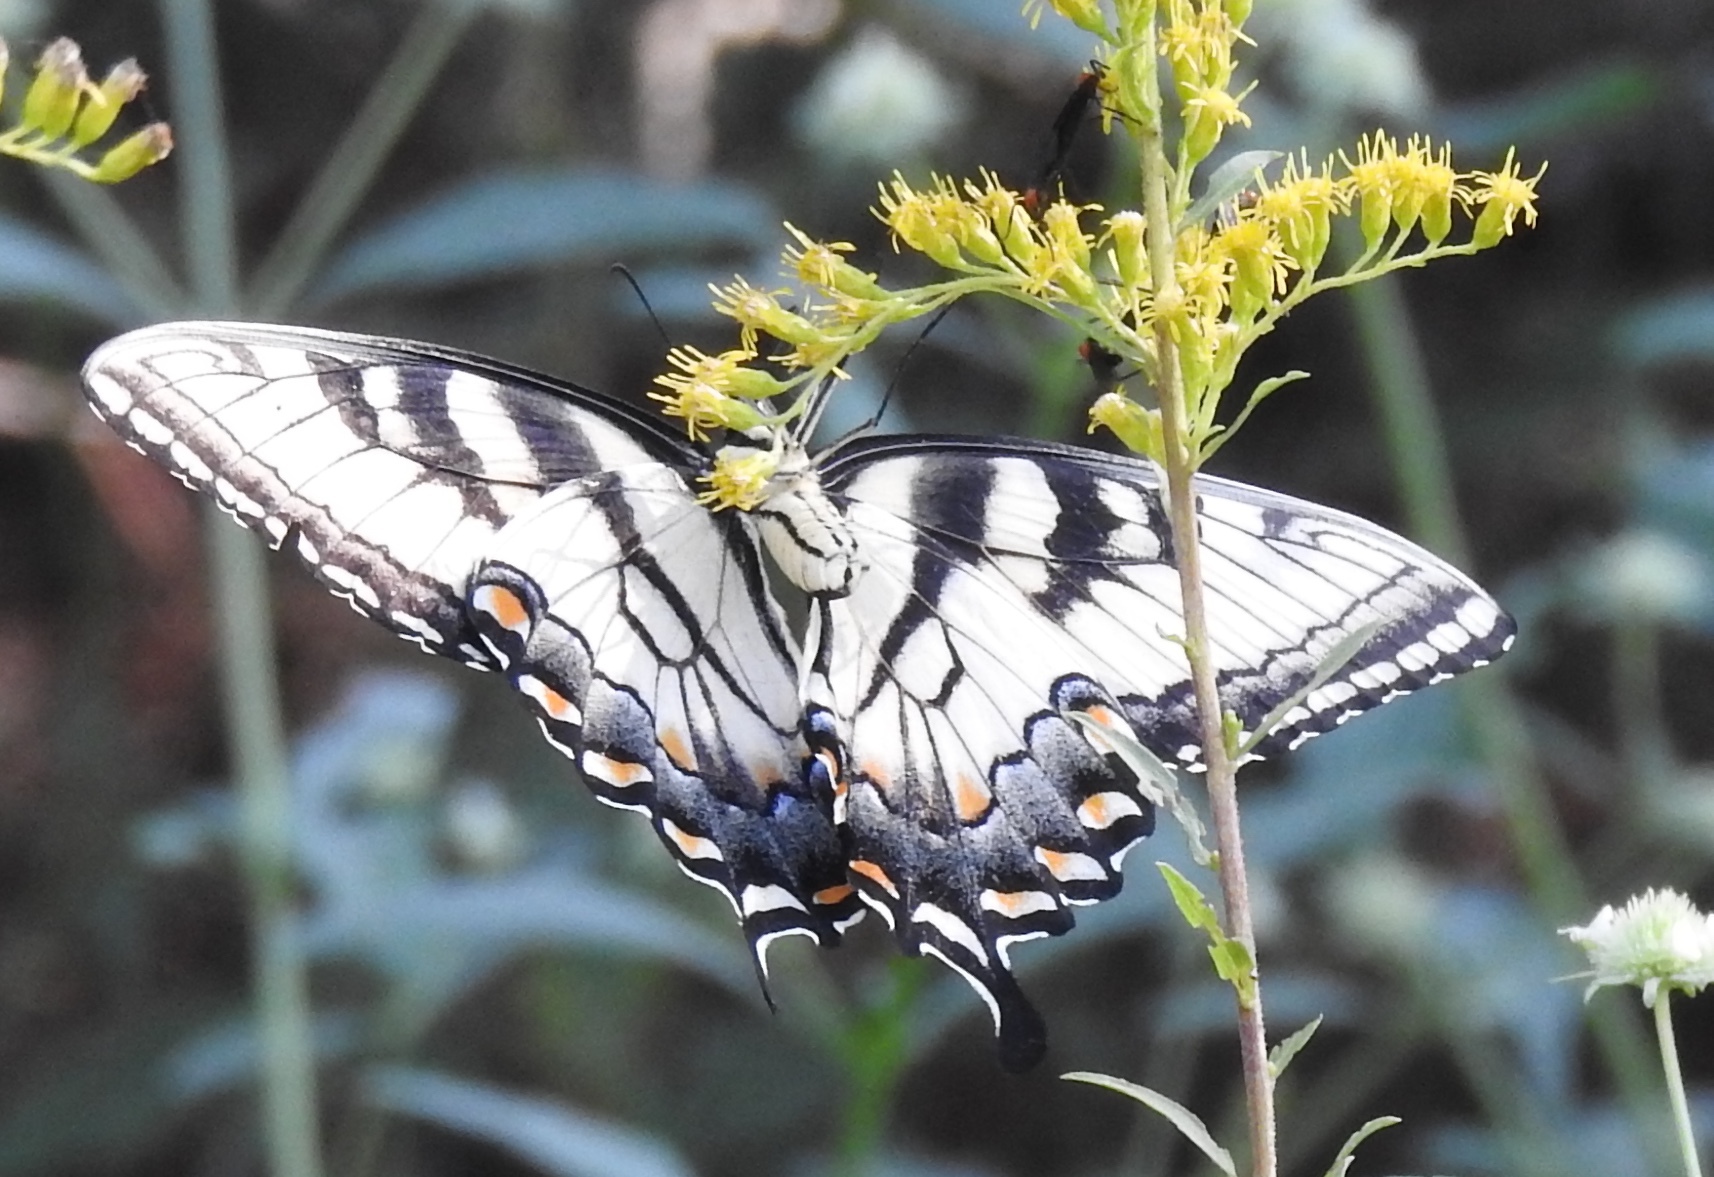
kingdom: Animalia
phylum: Arthropoda
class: Insecta
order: Lepidoptera
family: Papilionidae
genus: Papilio
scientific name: Papilio glaucus
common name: Tiger swallowtail
